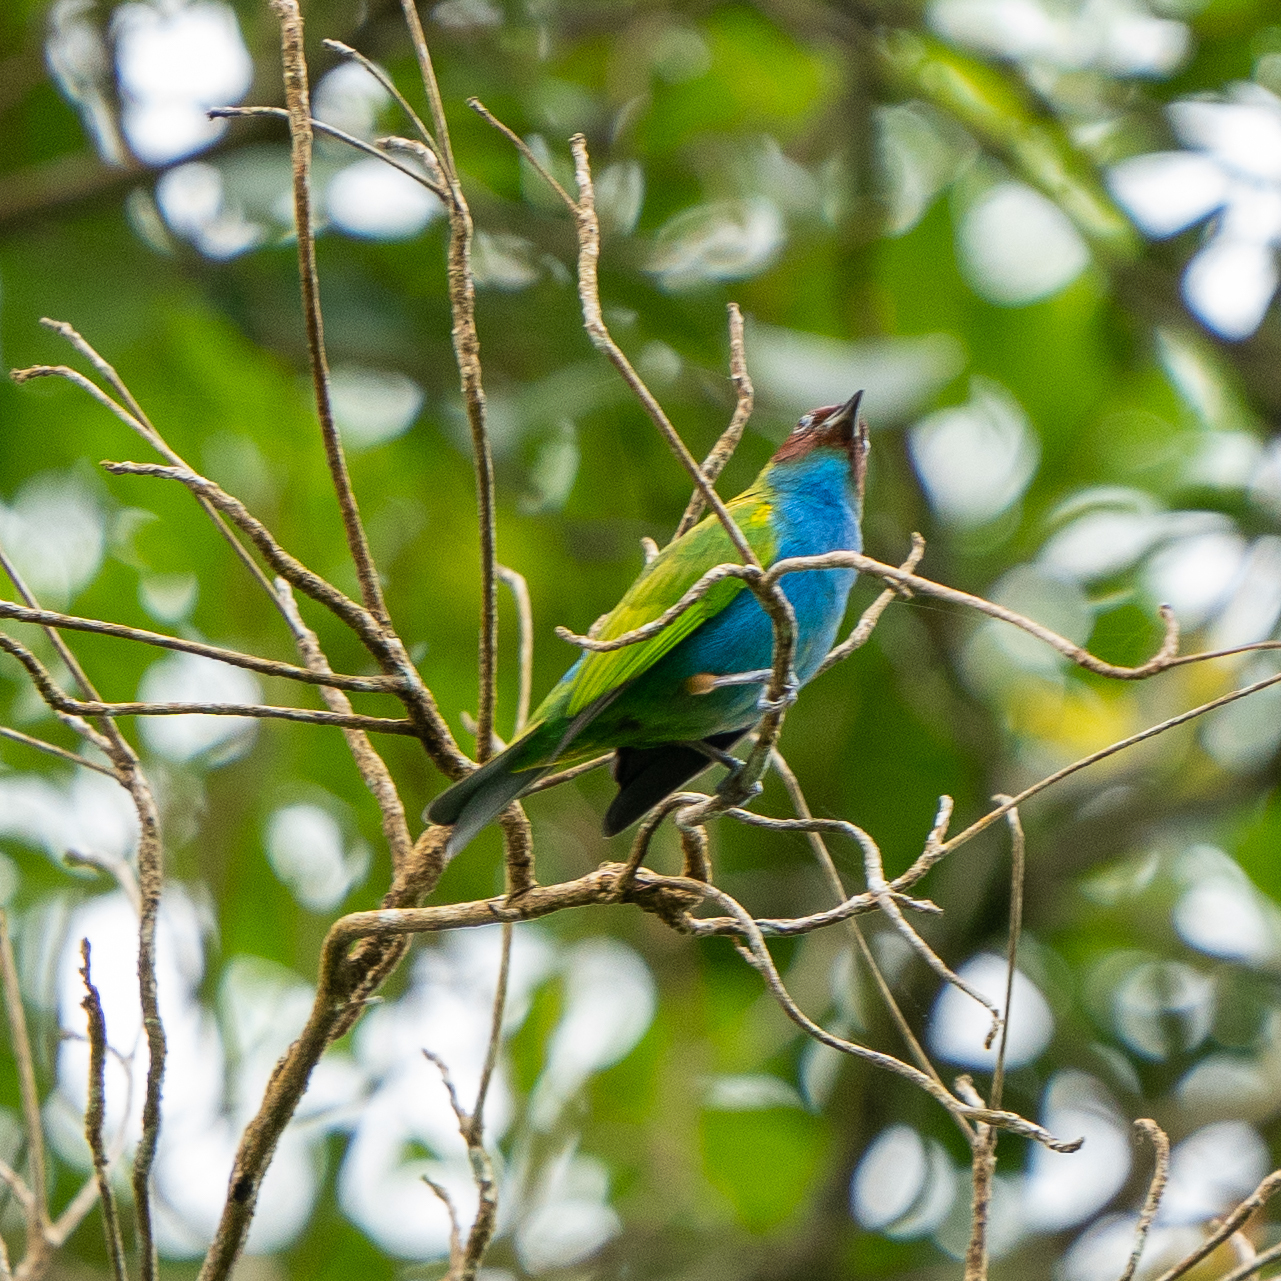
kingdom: Animalia
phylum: Chordata
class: Aves
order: Passeriformes
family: Thraupidae
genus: Tangara
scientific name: Tangara gyrola
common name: Bay-headed tanager
